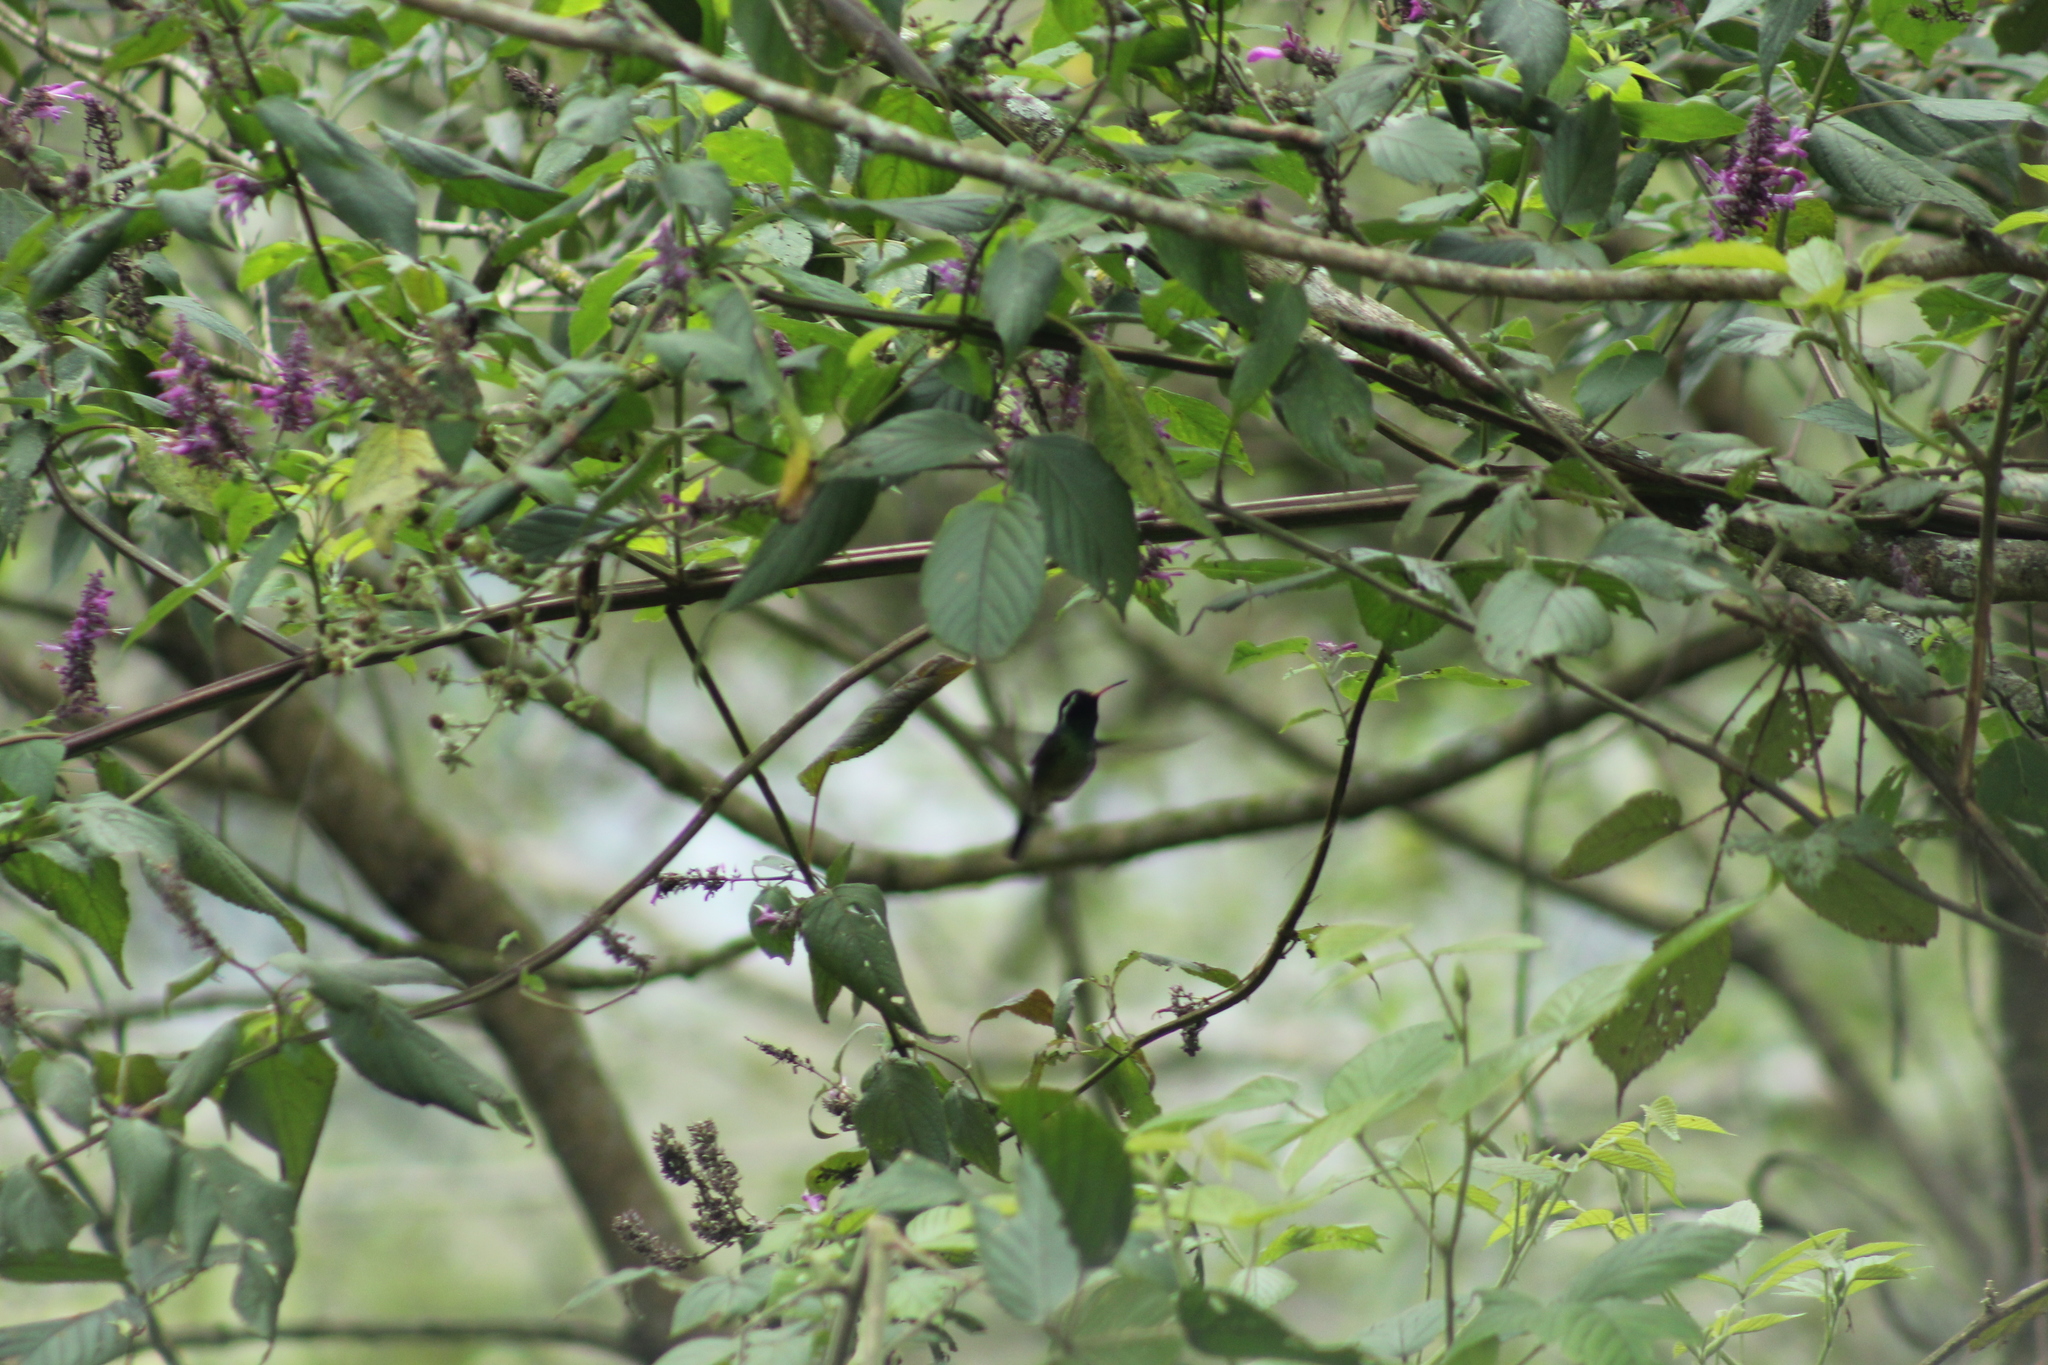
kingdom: Animalia
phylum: Chordata
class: Aves
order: Apodiformes
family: Trochilidae
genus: Basilinna
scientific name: Basilinna leucotis
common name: White-eared hummingbird
